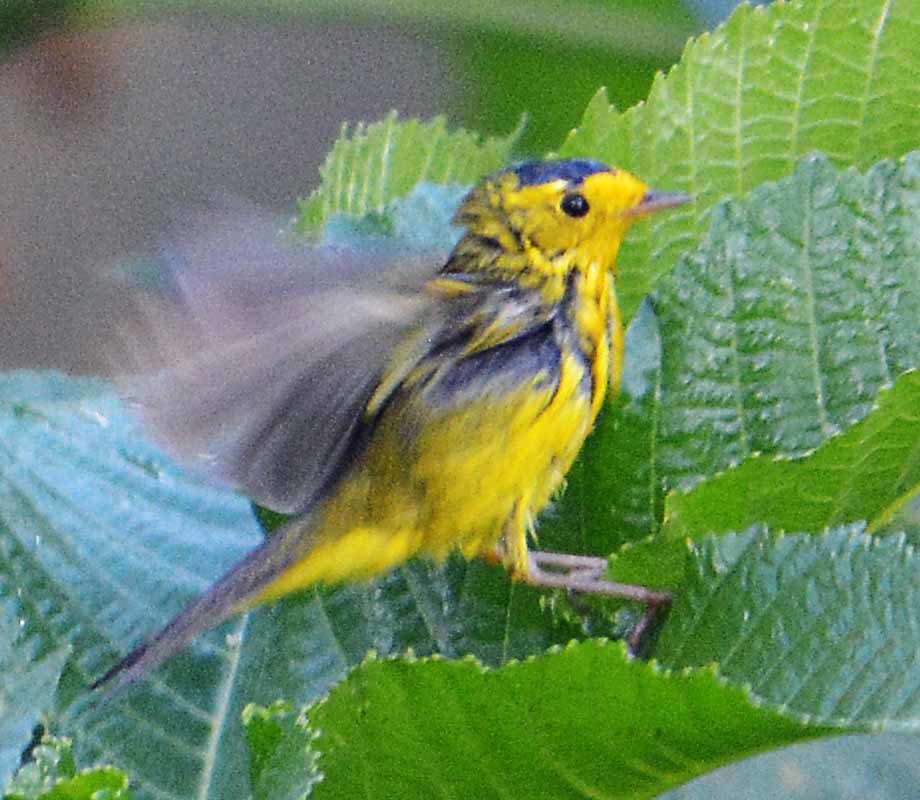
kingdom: Animalia
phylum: Chordata
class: Aves
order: Passeriformes
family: Parulidae
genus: Cardellina
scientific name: Cardellina pusilla
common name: Wilson's warbler
